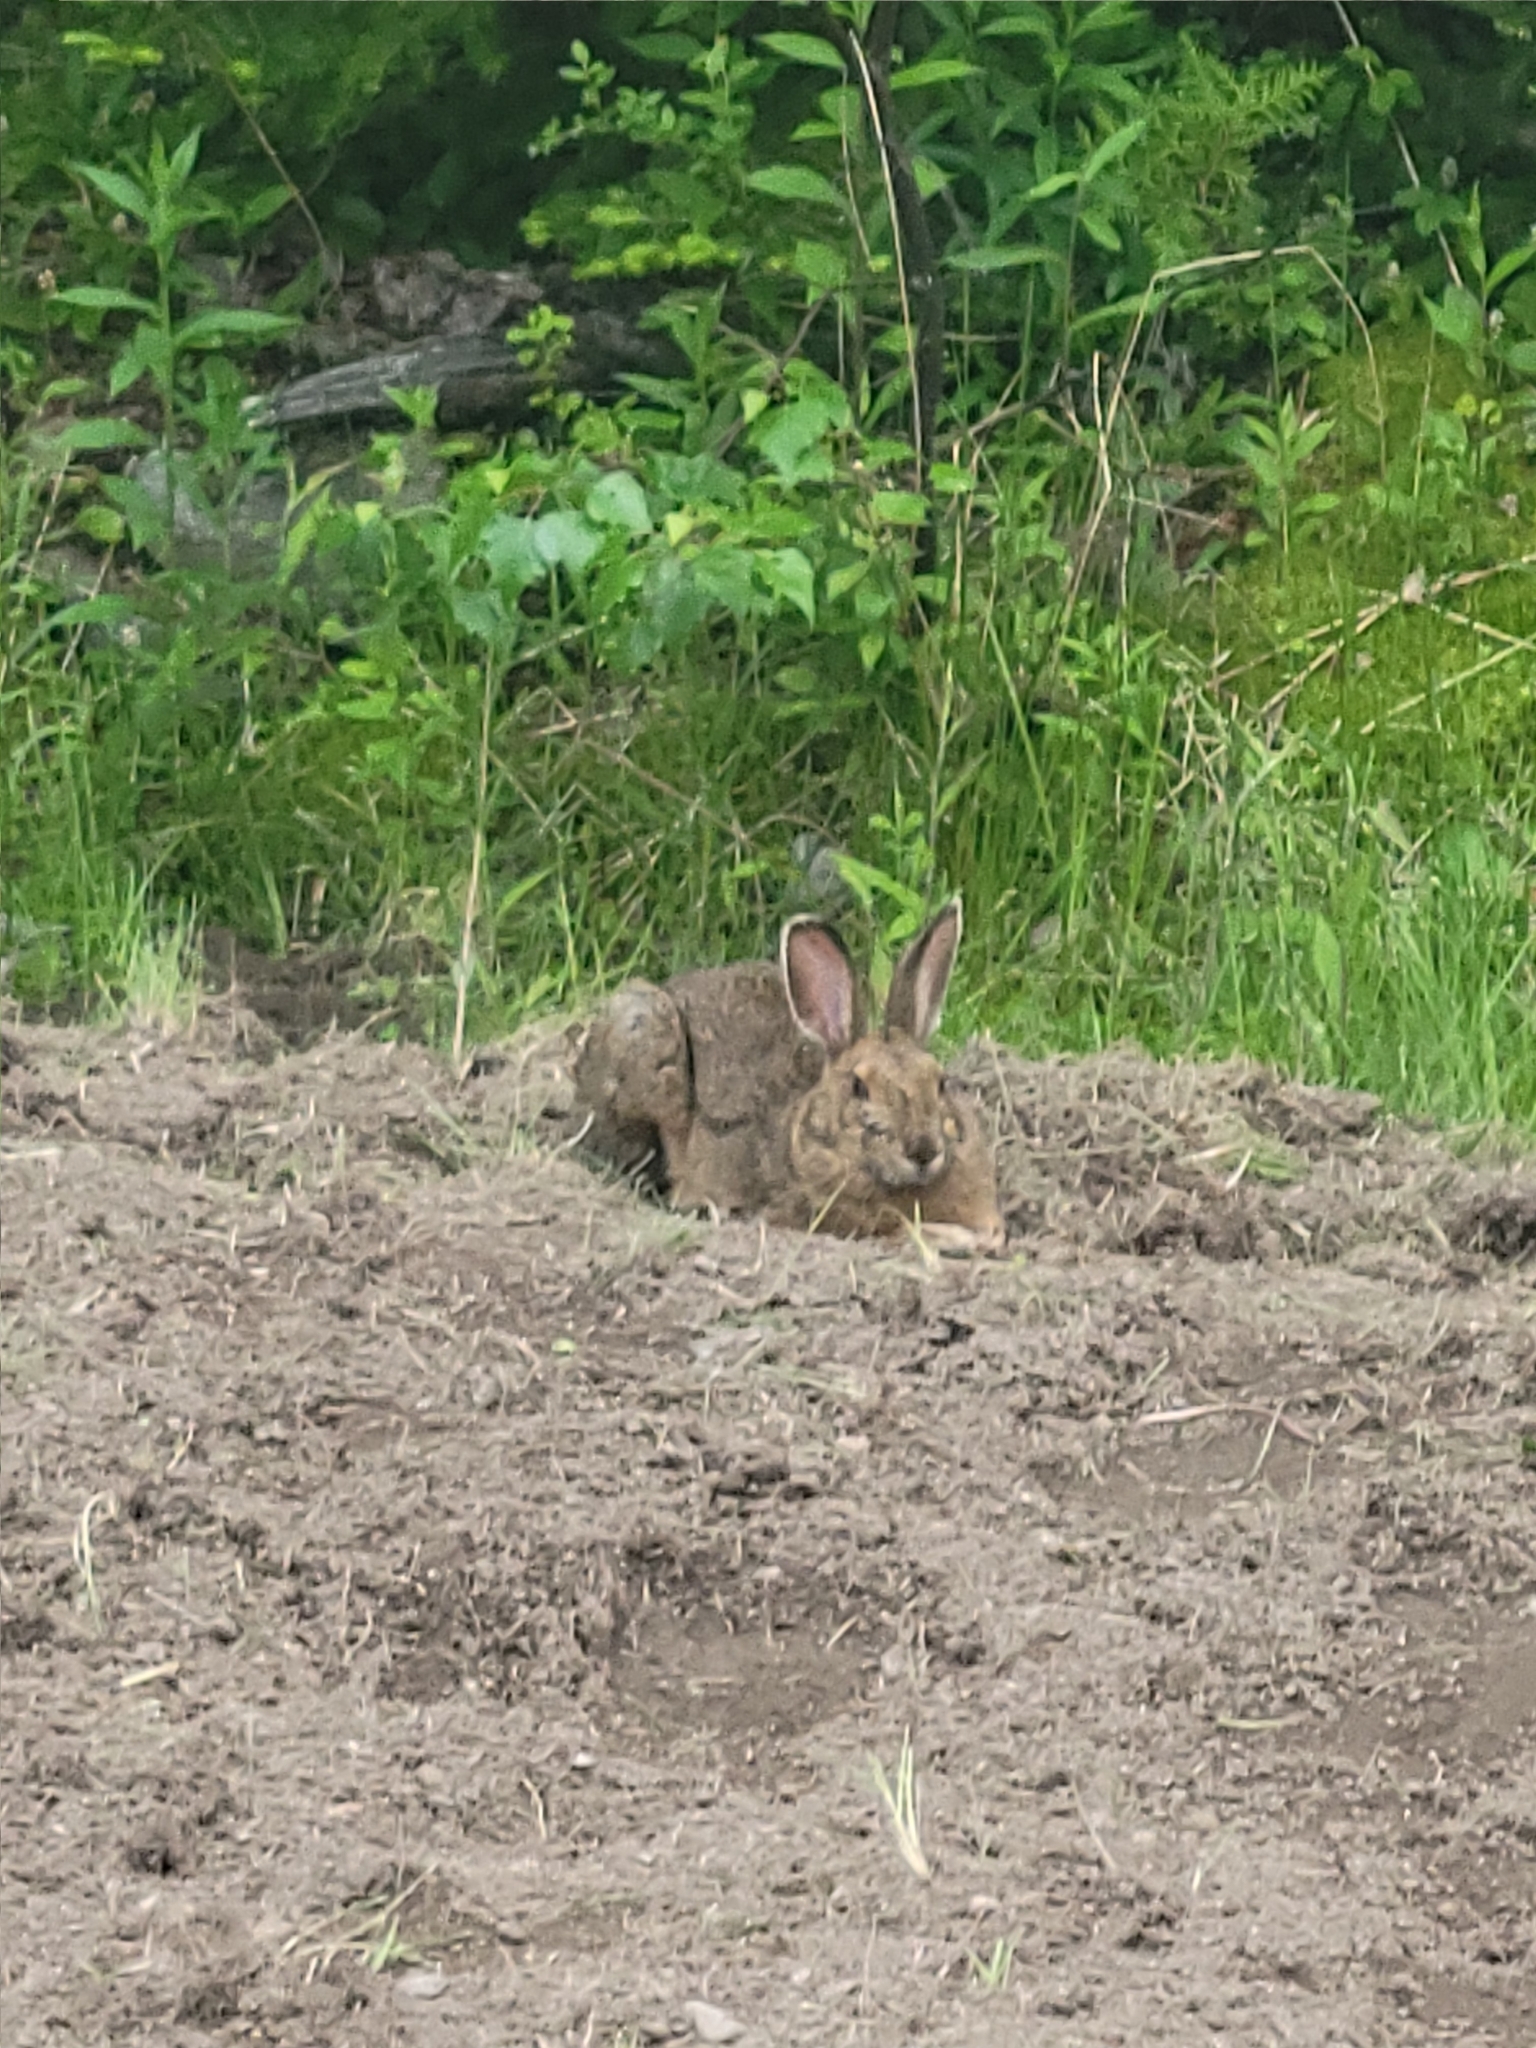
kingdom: Animalia
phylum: Chordata
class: Mammalia
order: Lagomorpha
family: Leporidae
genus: Lepus
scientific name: Lepus americanus
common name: Snowshoe hare
